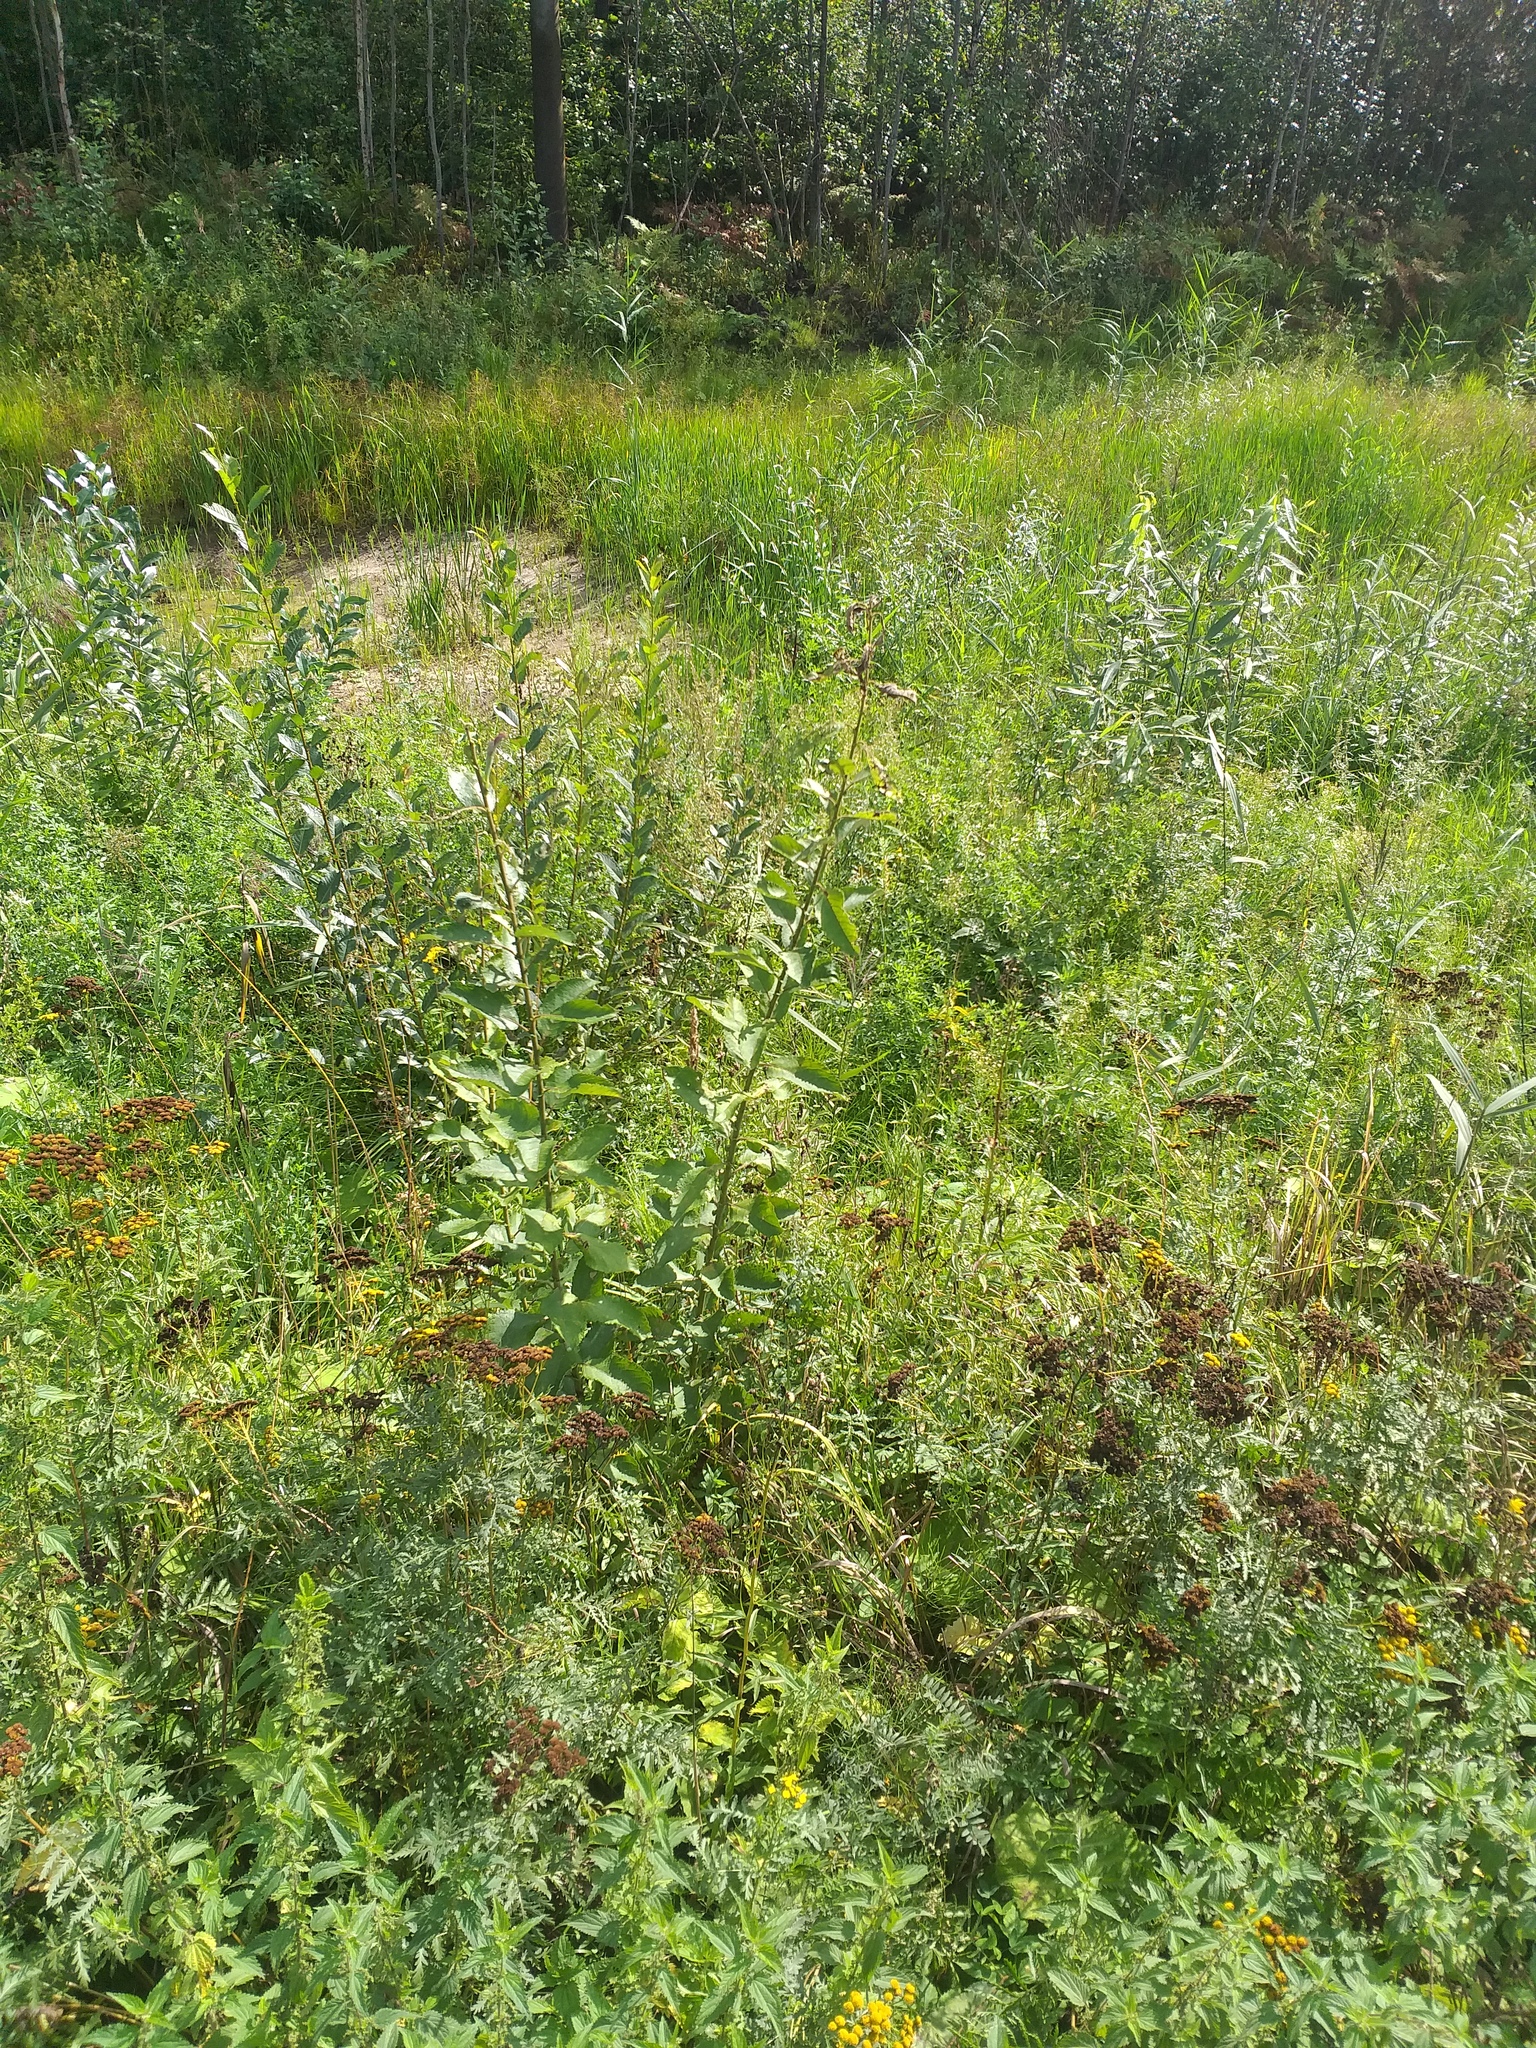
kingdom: Plantae
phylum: Tracheophyta
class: Magnoliopsida
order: Malpighiales
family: Salicaceae
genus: Salix
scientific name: Salix caprea
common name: Goat willow
